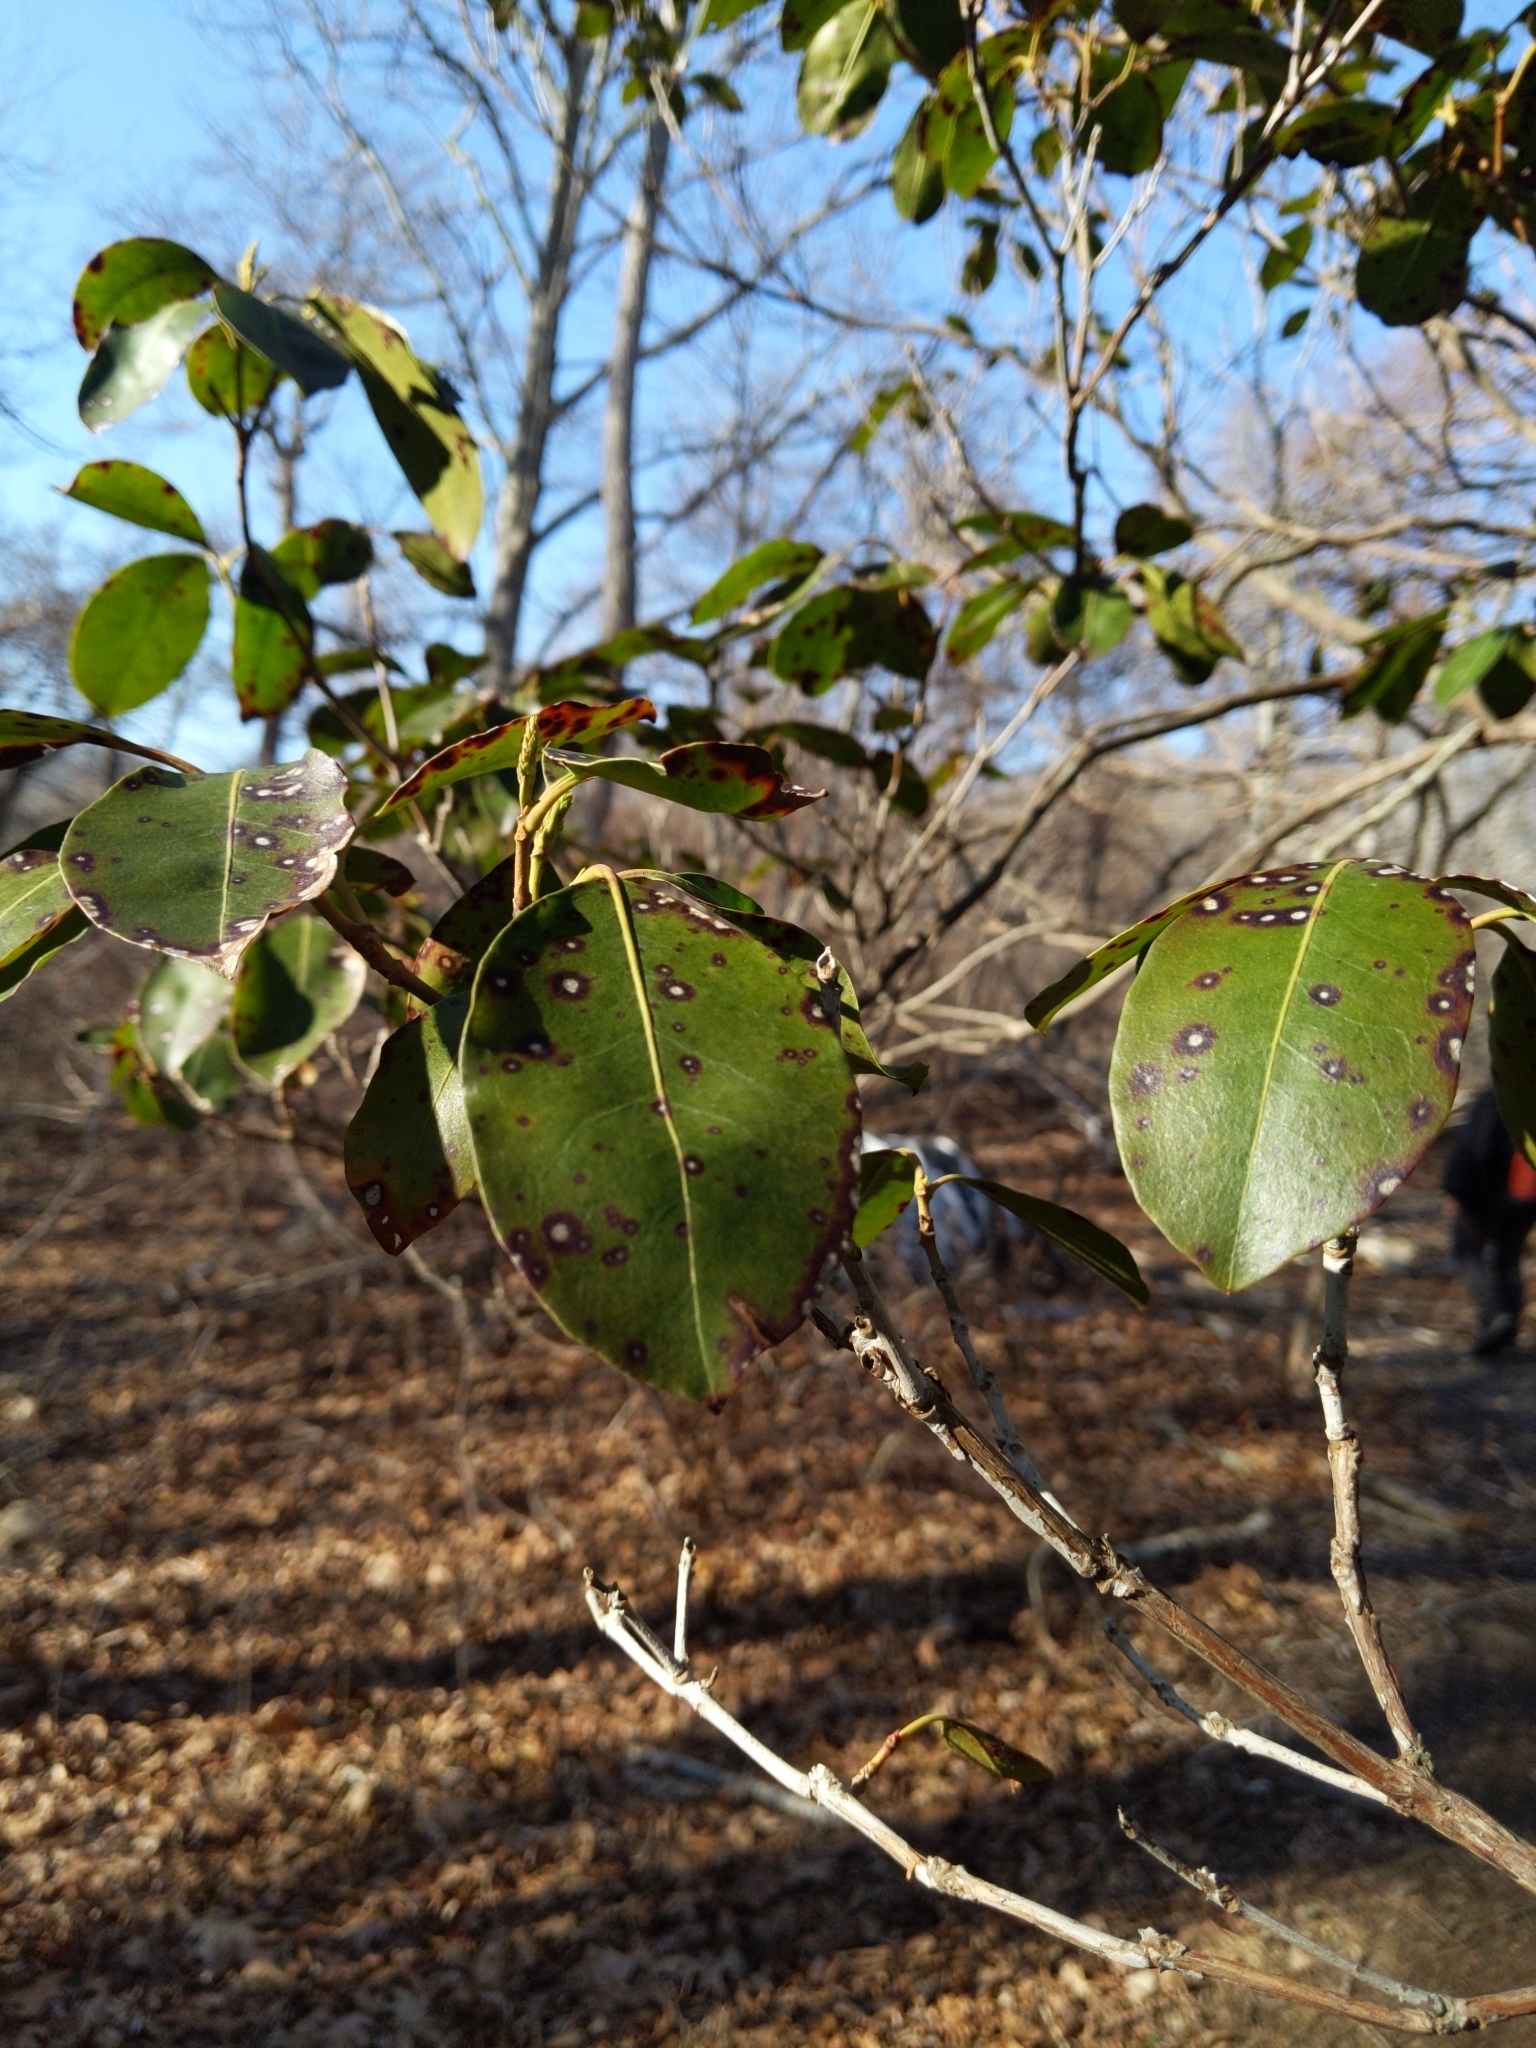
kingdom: Plantae
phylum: Tracheophyta
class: Magnoliopsida
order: Ericales
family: Ericaceae
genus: Kalmia
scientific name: Kalmia latifolia
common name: Mountain-laurel
